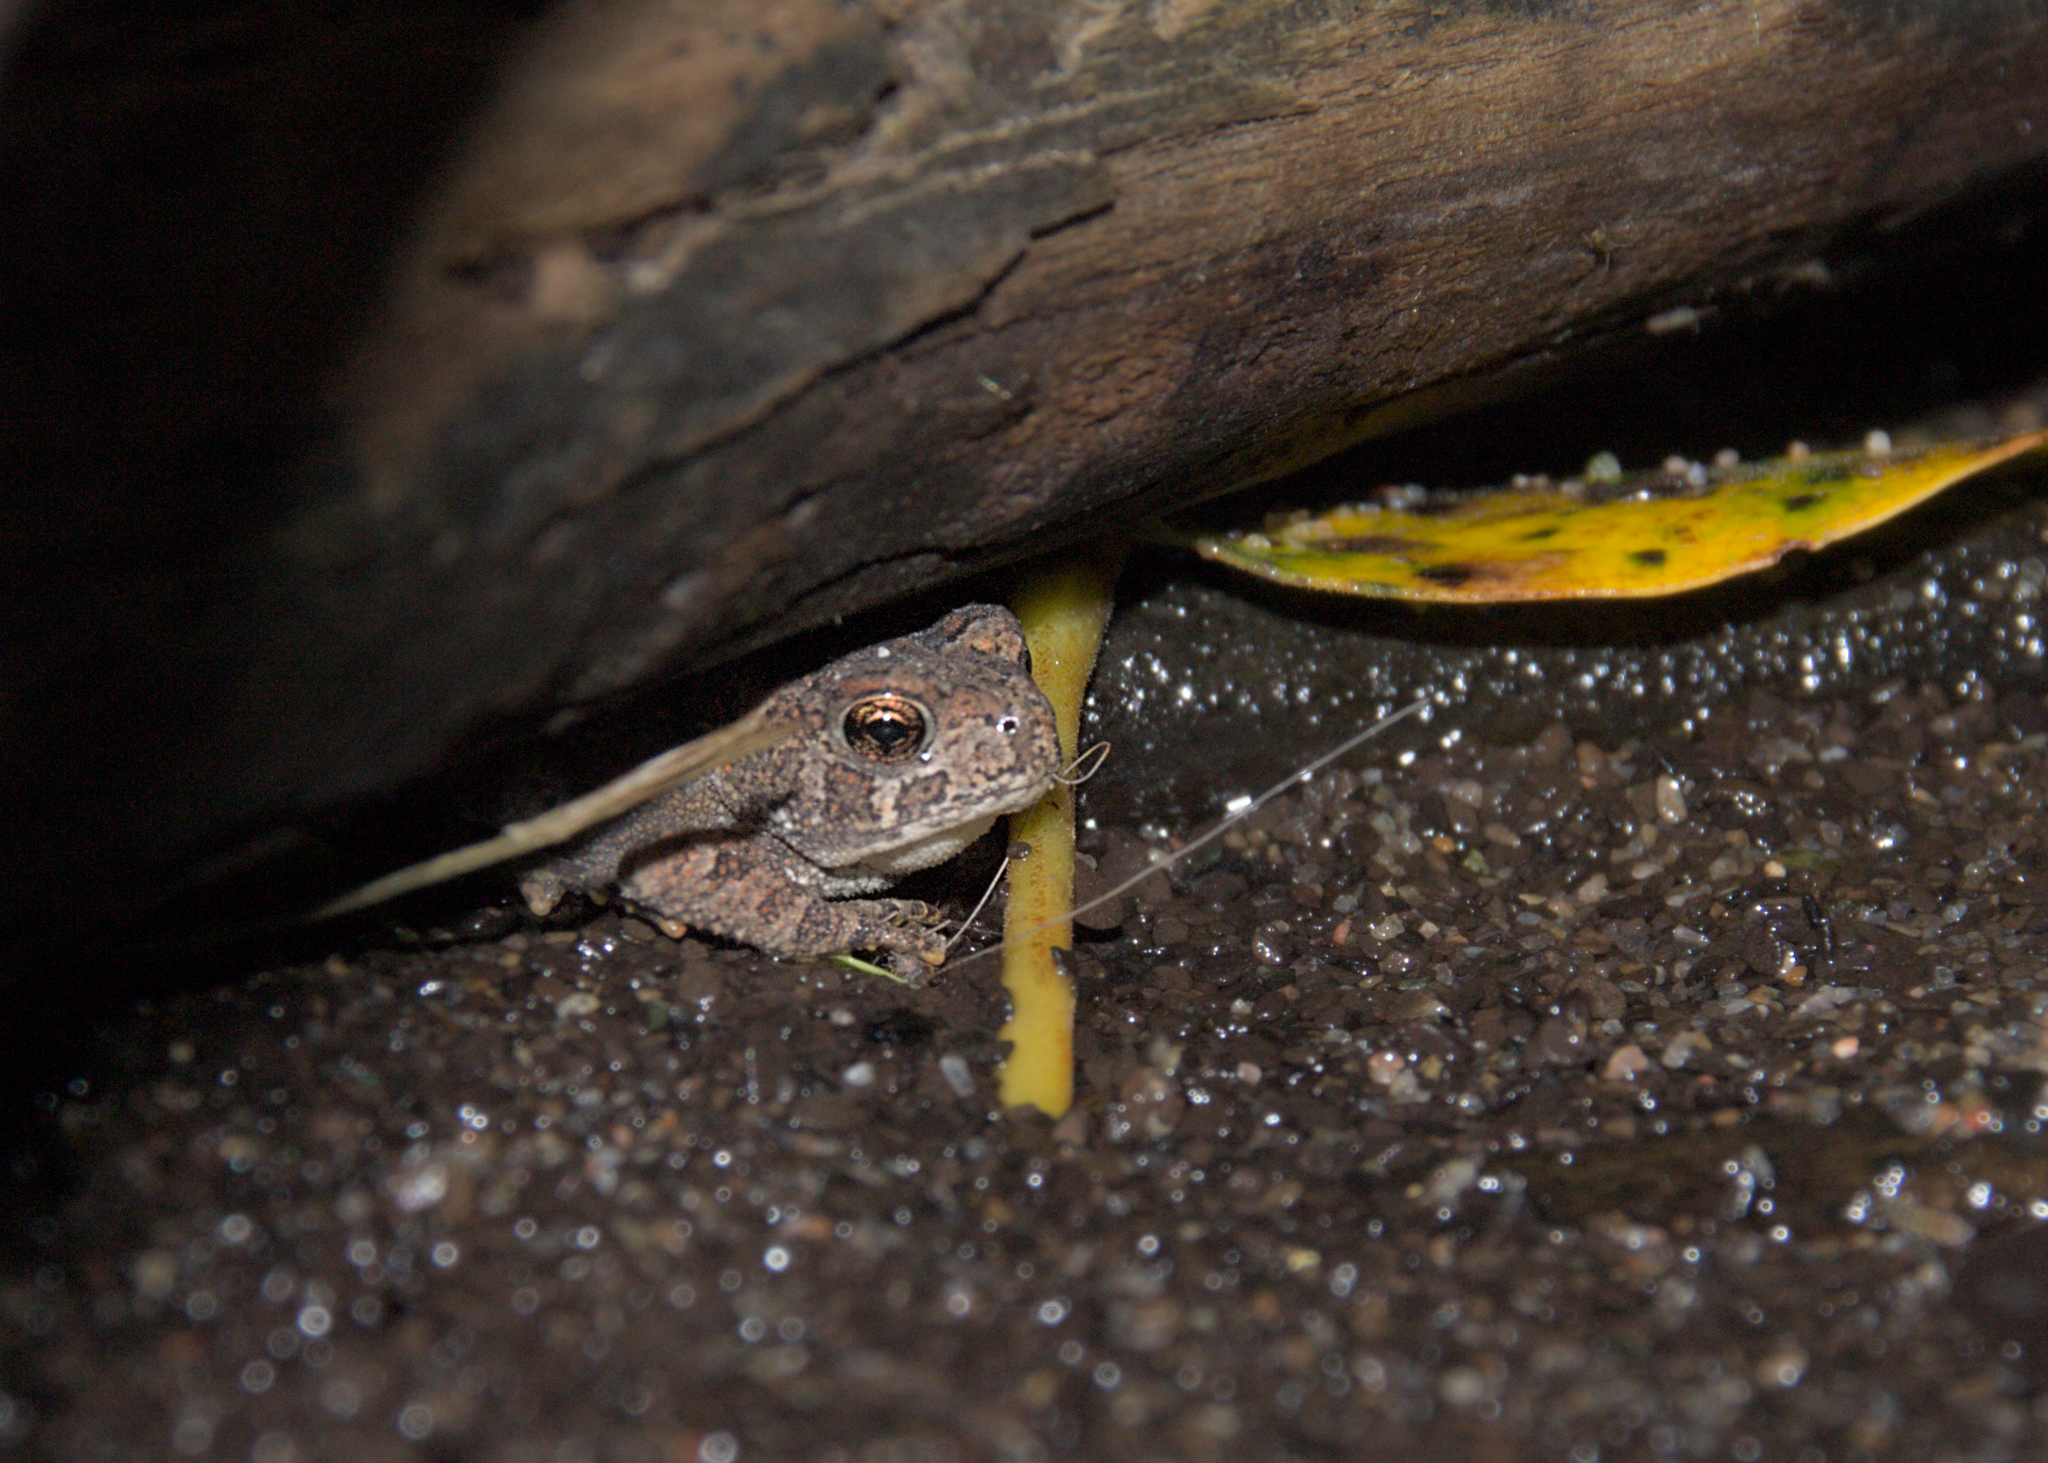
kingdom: Animalia
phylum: Chordata
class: Amphibia
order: Anura
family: Bufonidae
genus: Anaxyrus
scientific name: Anaxyrus americanus
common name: American toad
